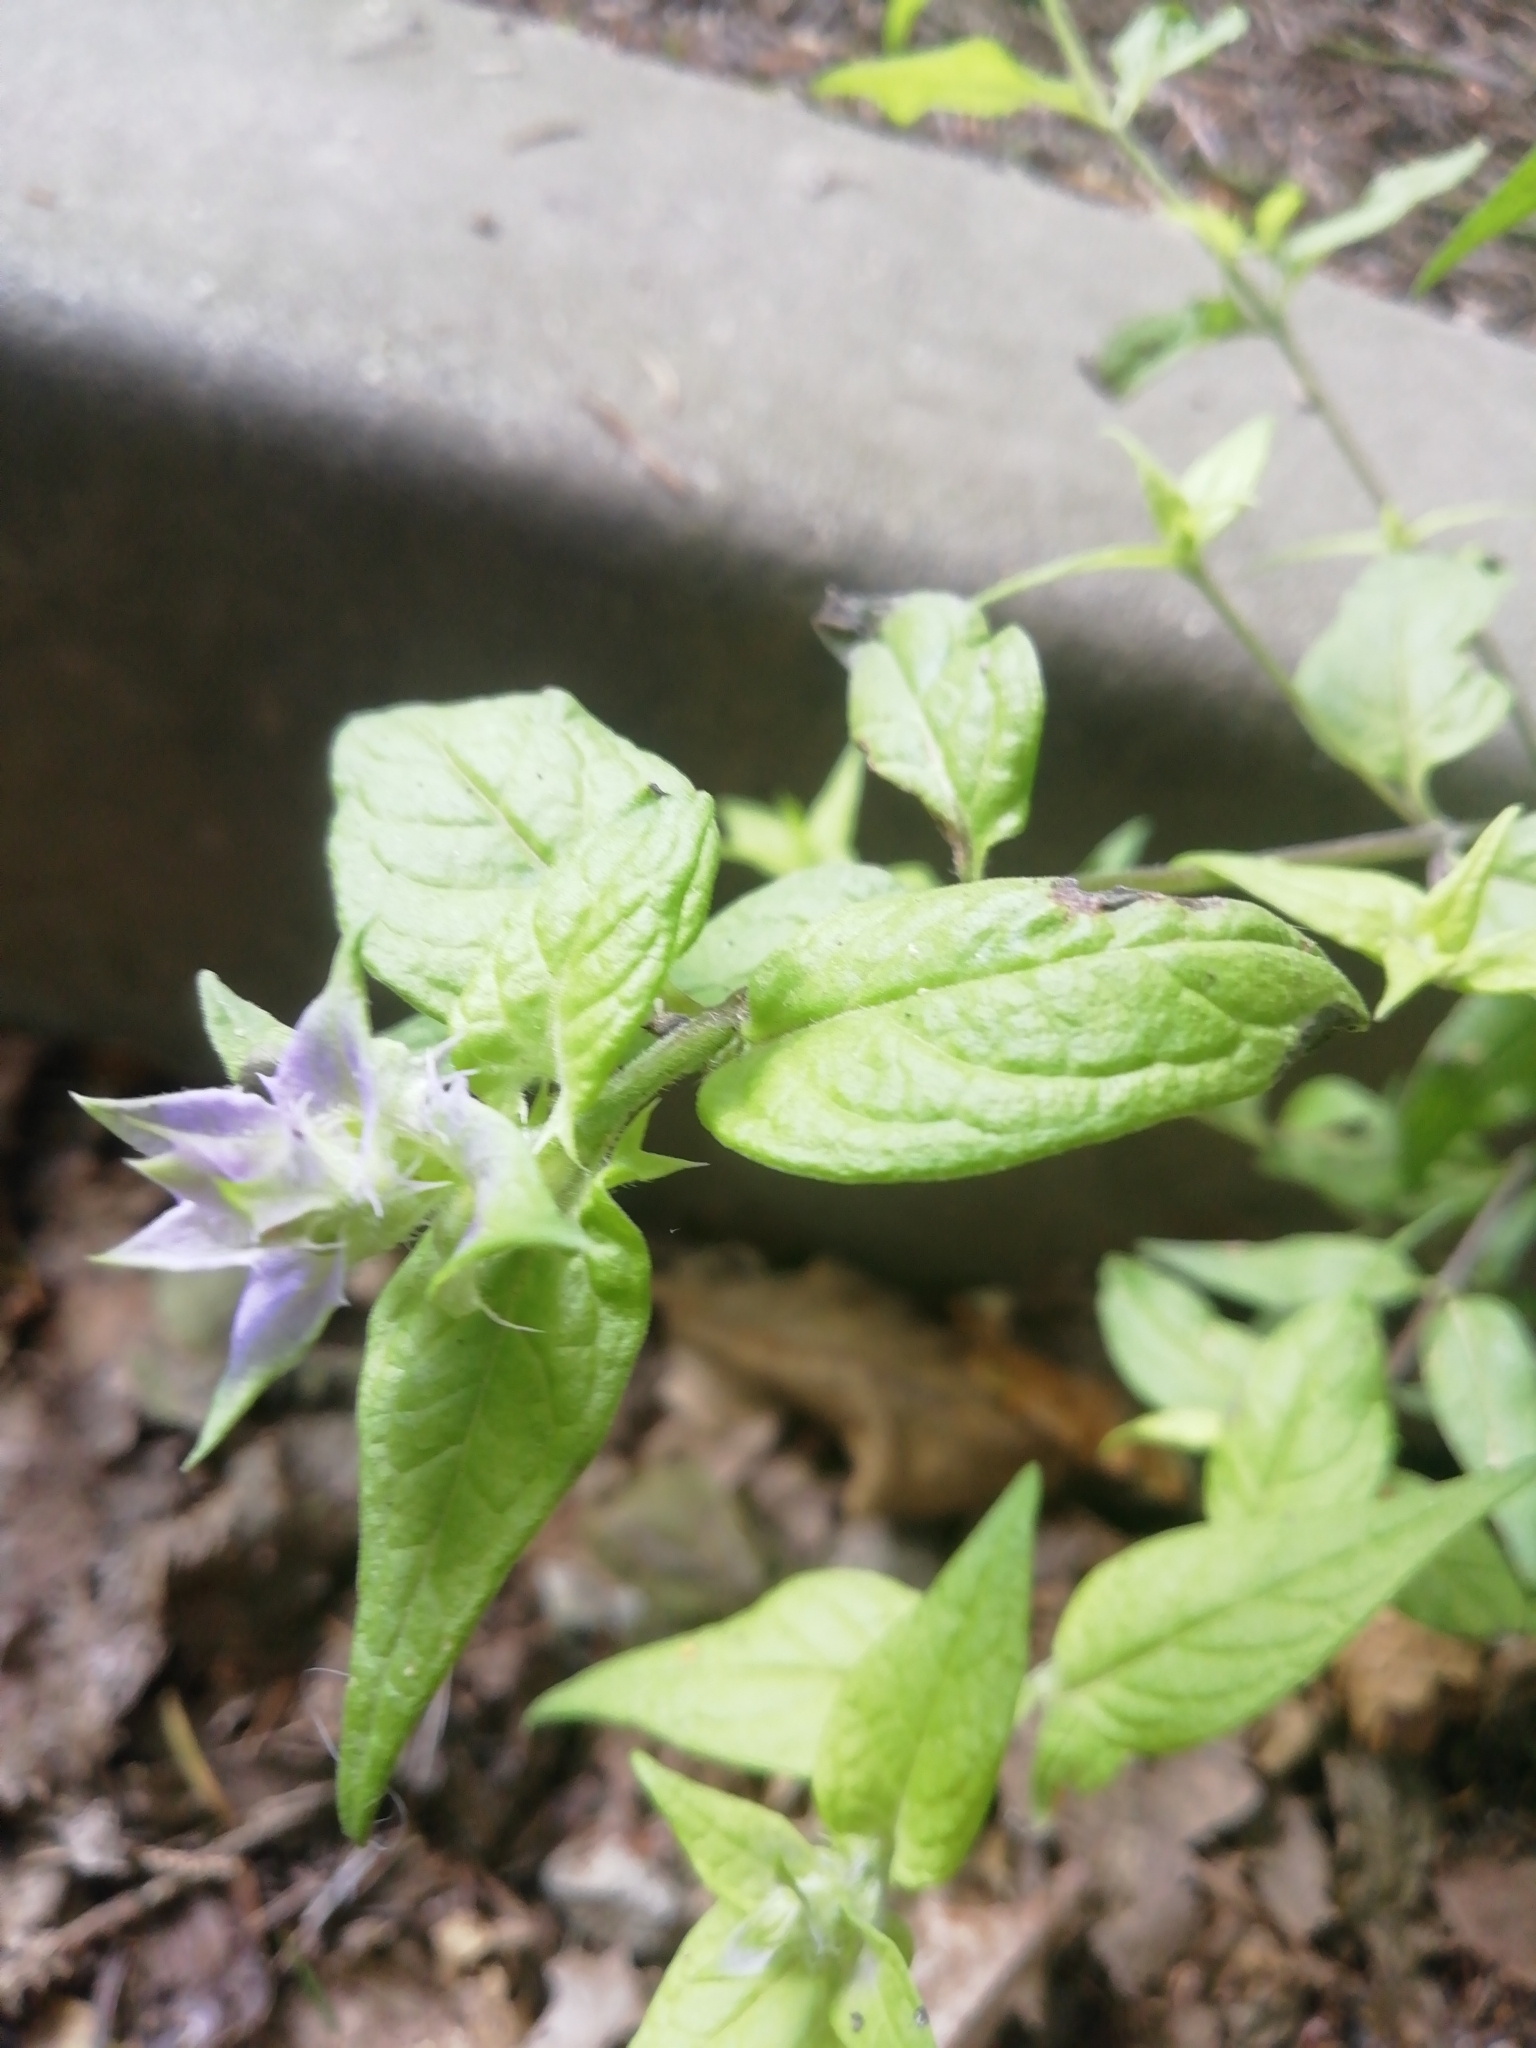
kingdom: Plantae
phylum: Tracheophyta
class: Magnoliopsida
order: Lamiales
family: Orobanchaceae
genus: Melampyrum
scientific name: Melampyrum nemorosum
